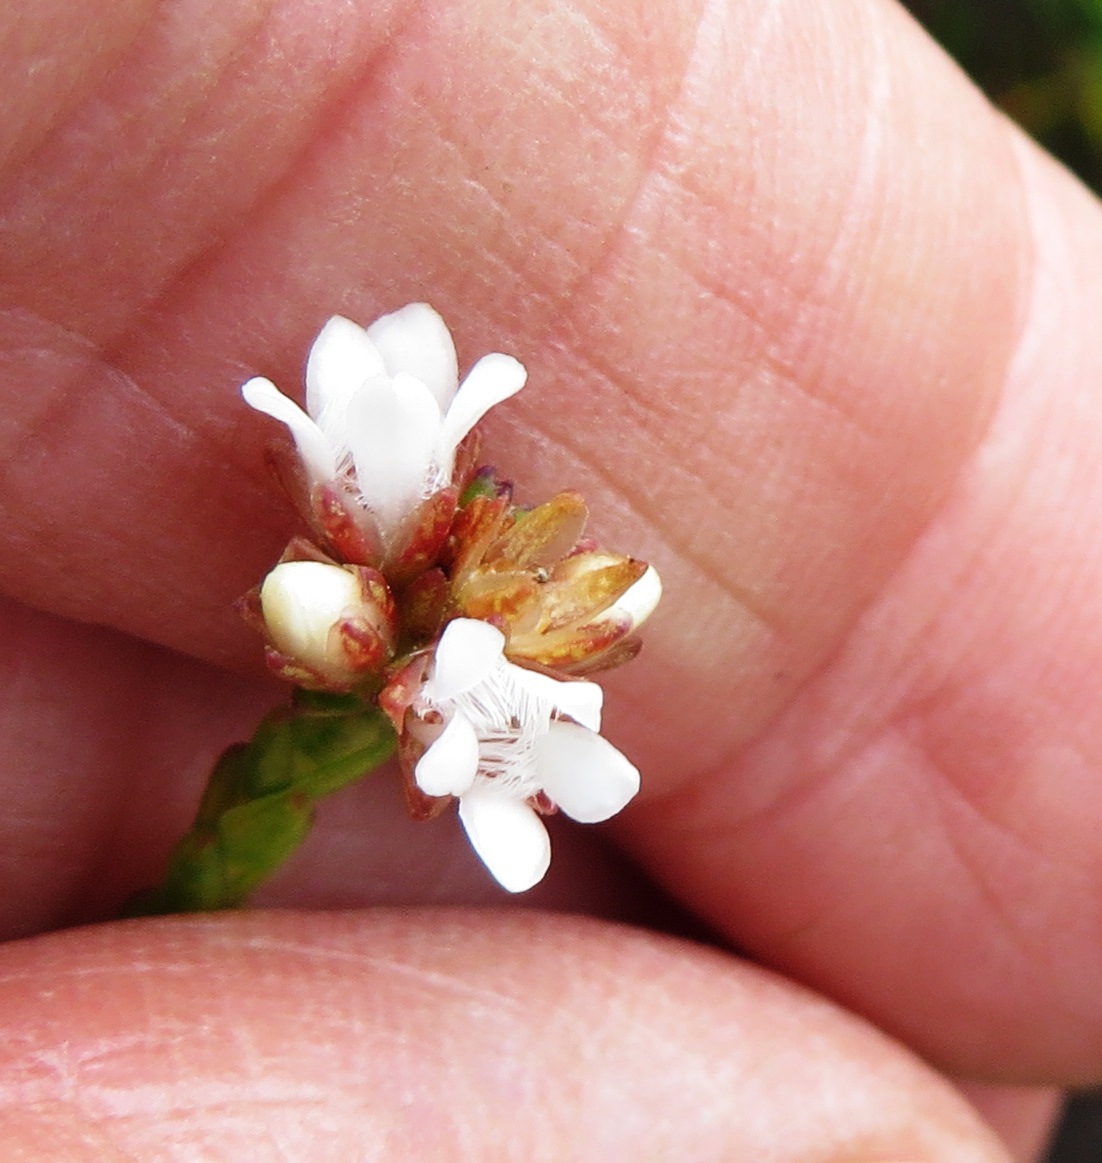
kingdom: Plantae
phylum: Tracheophyta
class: Magnoliopsida
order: Sapindales
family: Rutaceae
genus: Euchaetis
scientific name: Euchaetis flexilis
